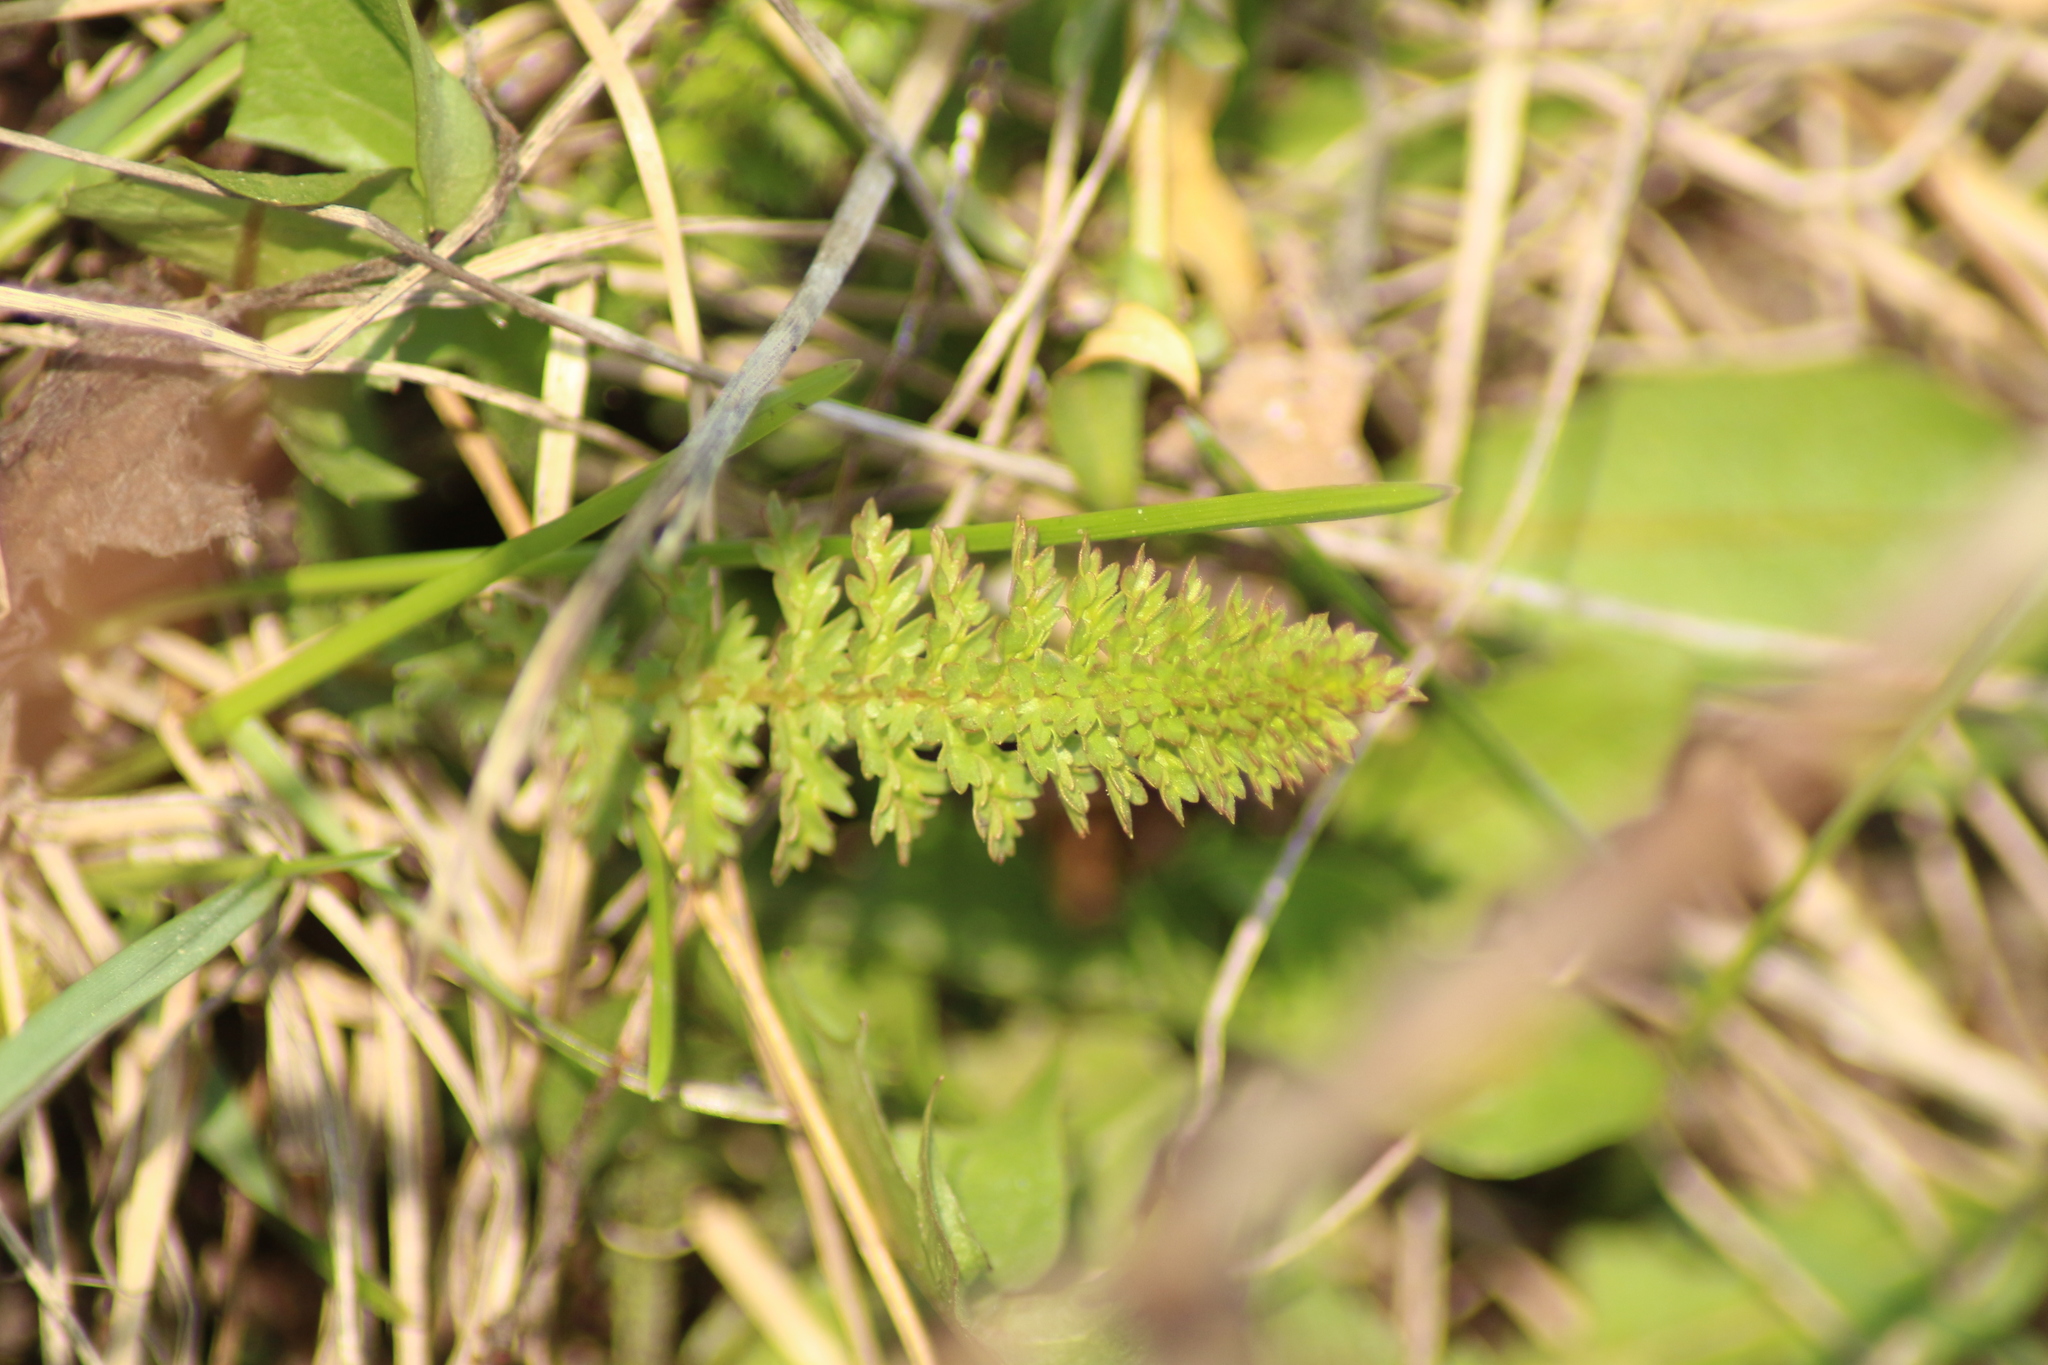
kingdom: Plantae
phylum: Tracheophyta
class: Magnoliopsida
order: Rosales
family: Rosaceae
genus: Filipendula
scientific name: Filipendula vulgaris
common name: Dropwort
